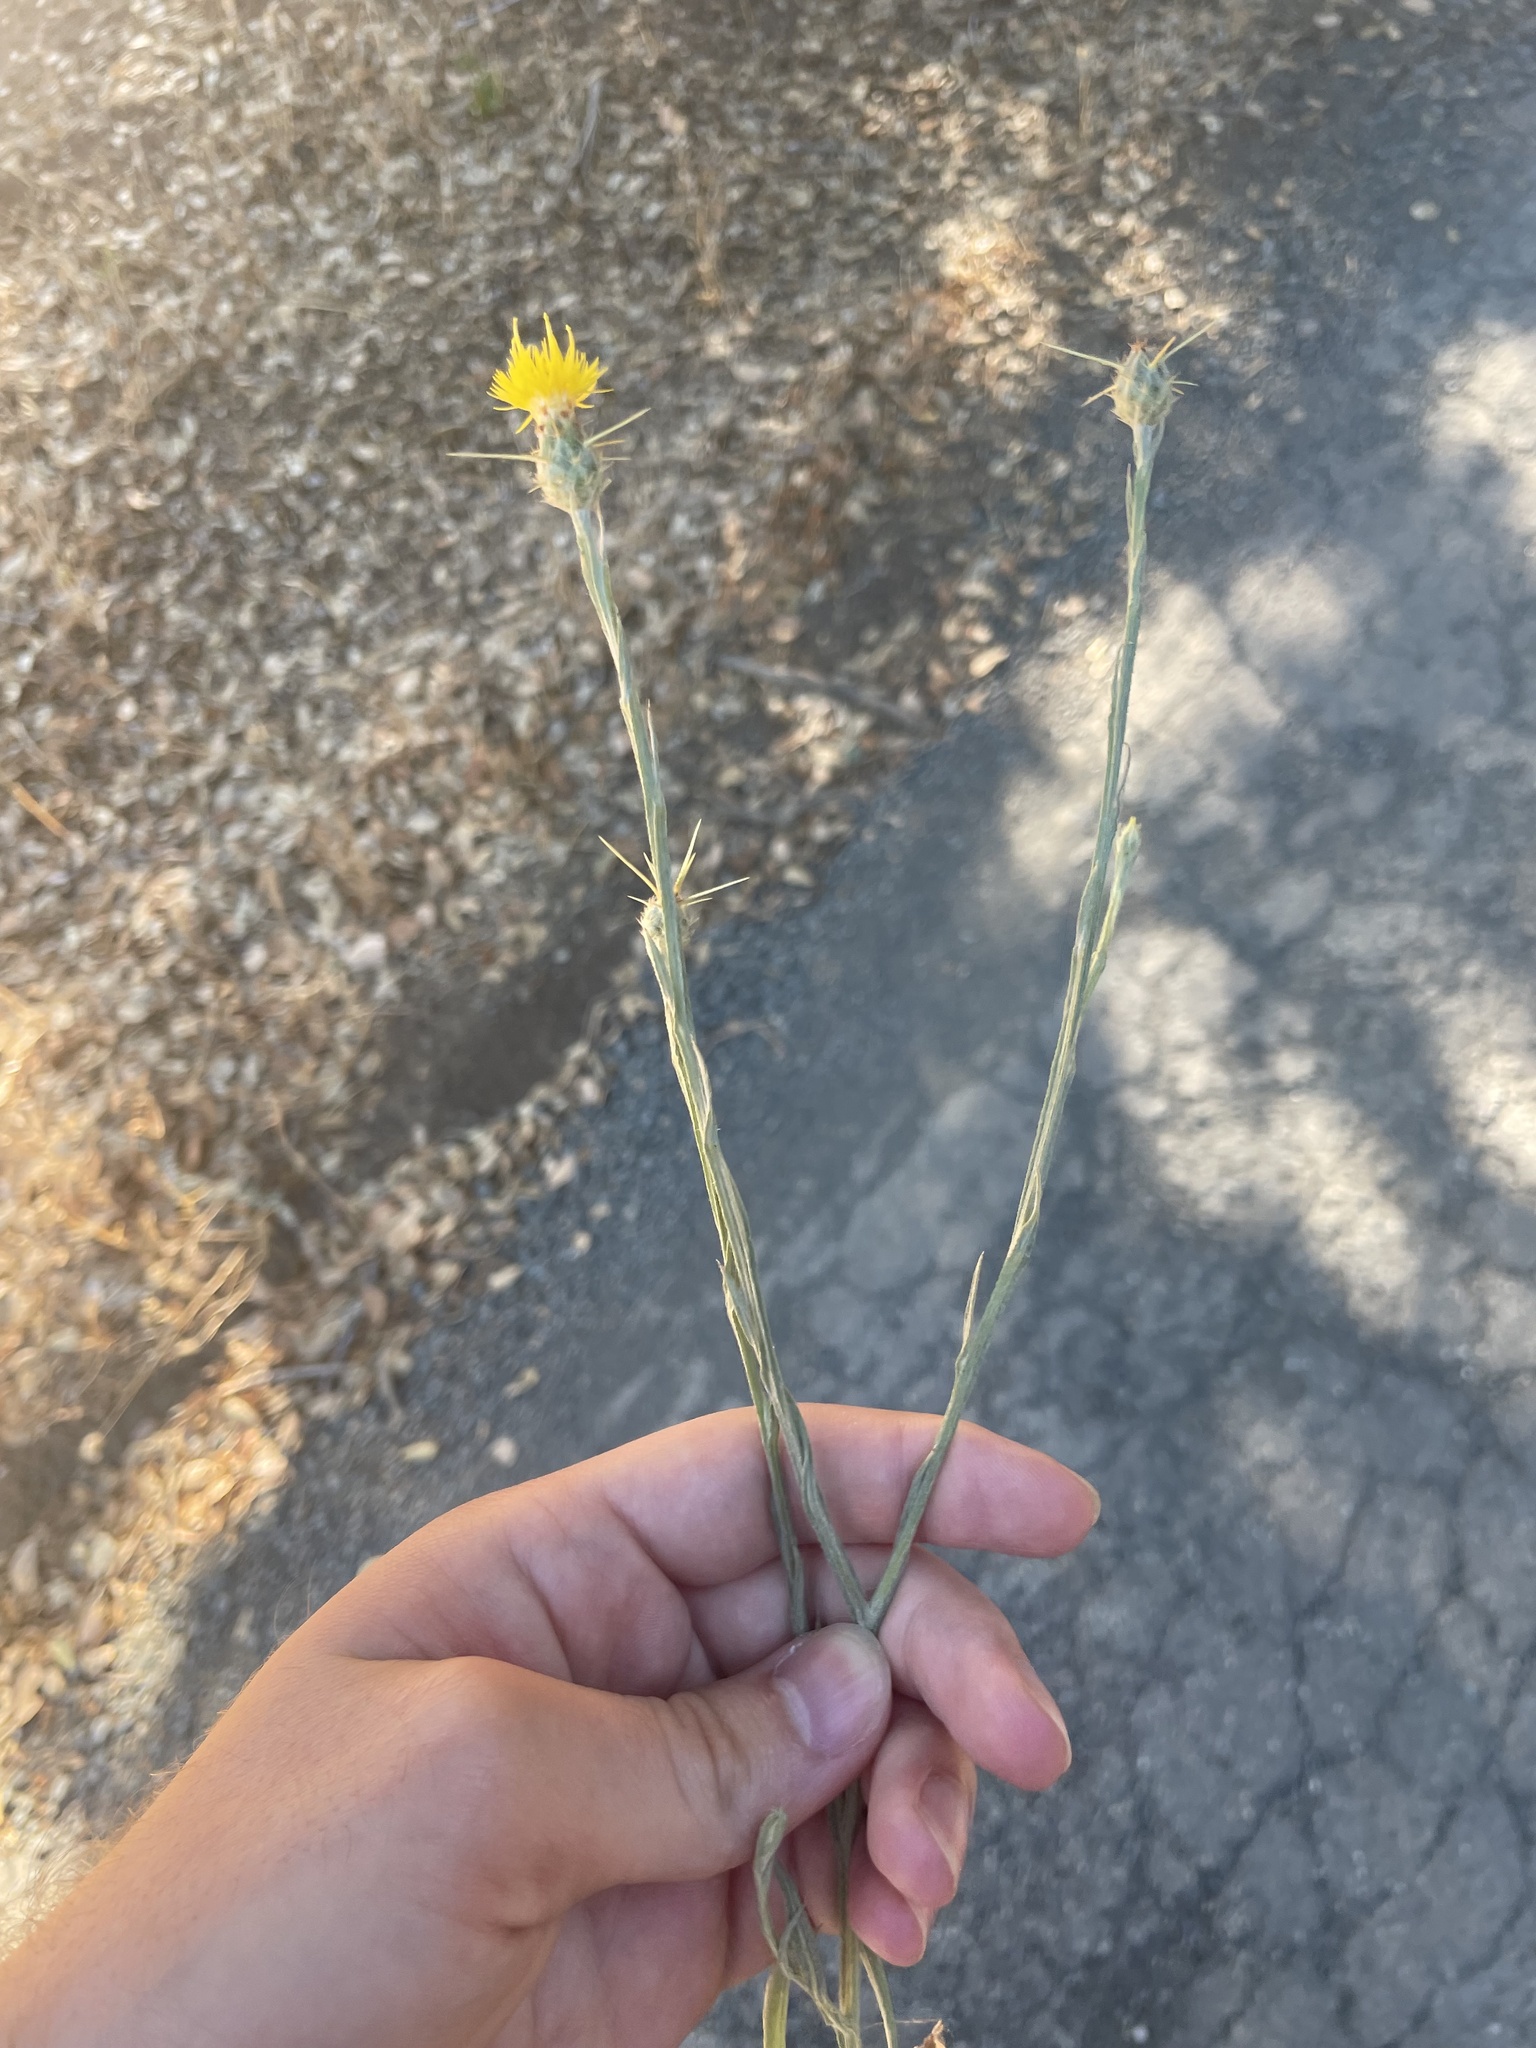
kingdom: Plantae
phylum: Tracheophyta
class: Magnoliopsida
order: Asterales
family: Asteraceae
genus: Centaurea
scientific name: Centaurea solstitialis
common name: Yellow star-thistle
